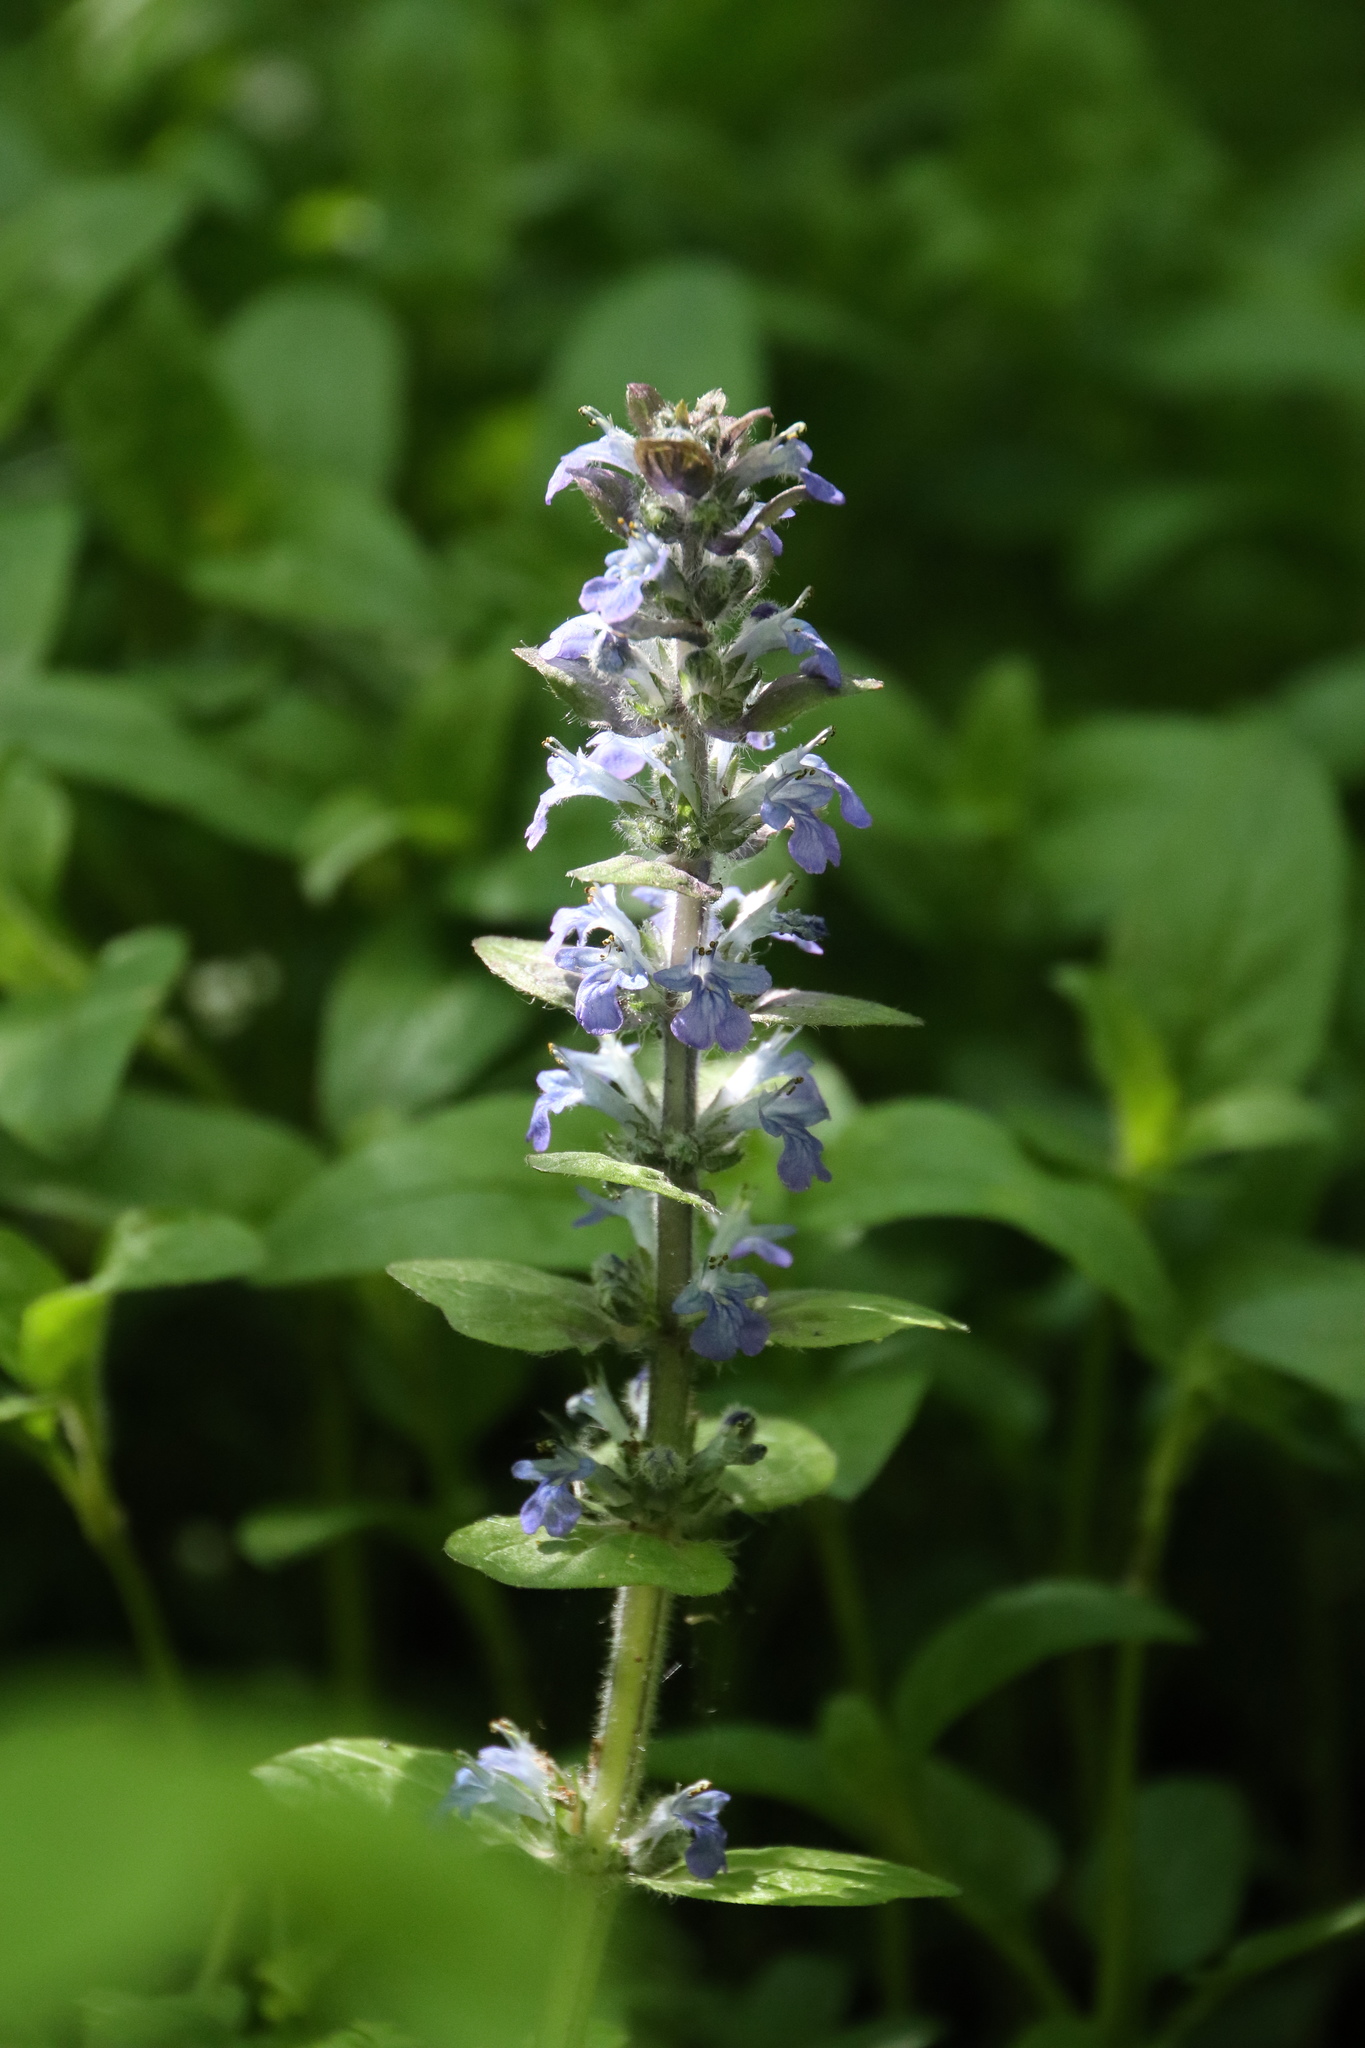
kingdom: Plantae
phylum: Tracheophyta
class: Magnoliopsida
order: Lamiales
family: Lamiaceae
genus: Ajuga
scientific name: Ajuga reptans
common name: Bugle
